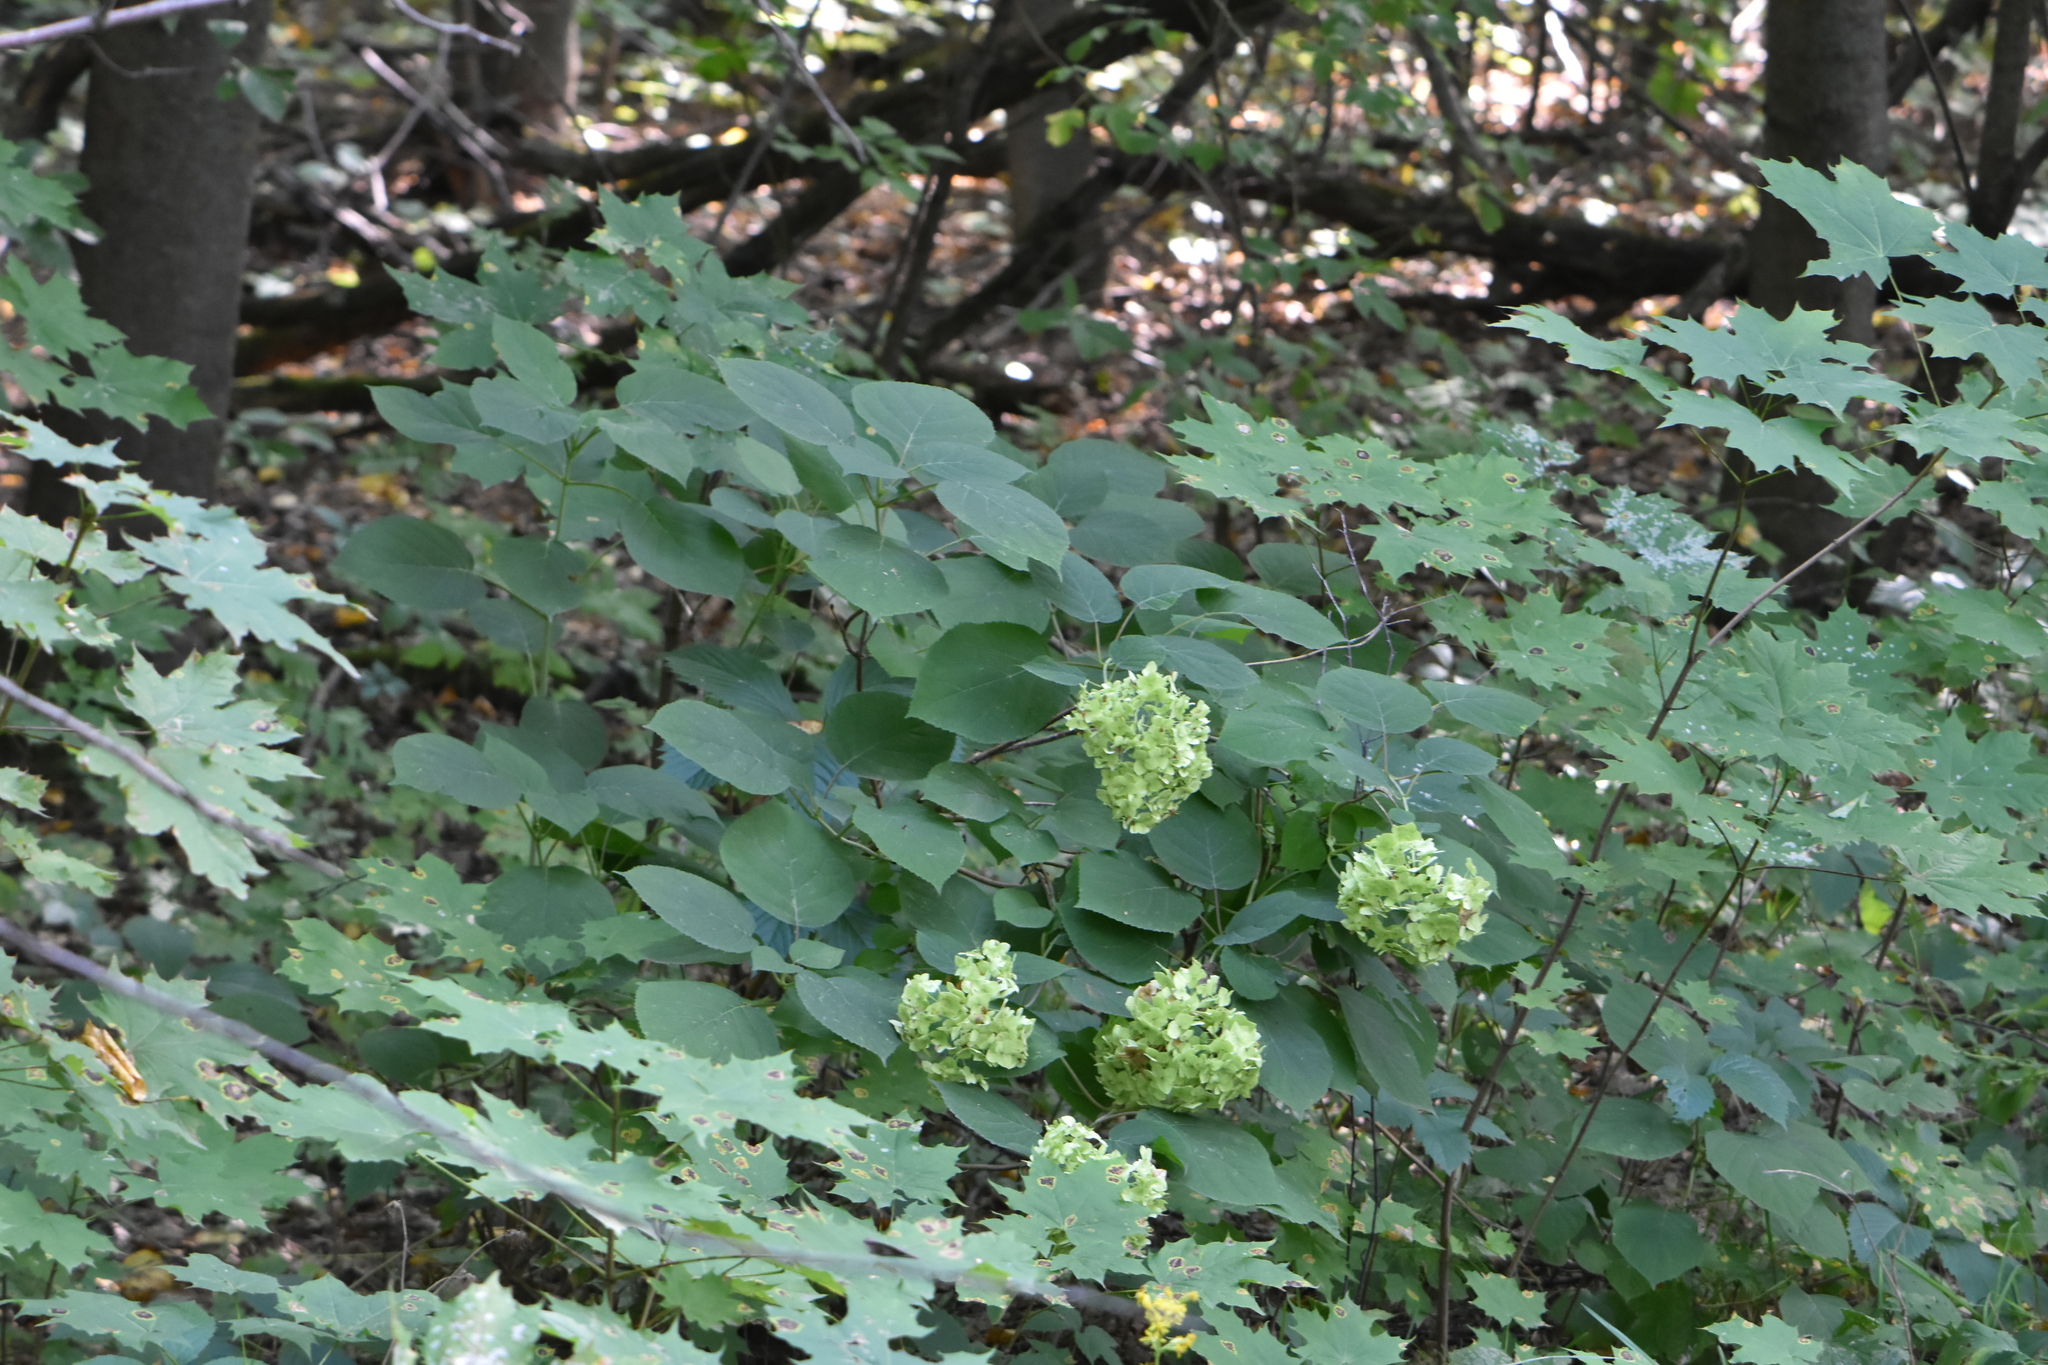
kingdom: Plantae
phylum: Tracheophyta
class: Magnoliopsida
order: Cornales
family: Hydrangeaceae
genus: Hydrangea
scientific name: Hydrangea arborescens
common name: Sevenbark
